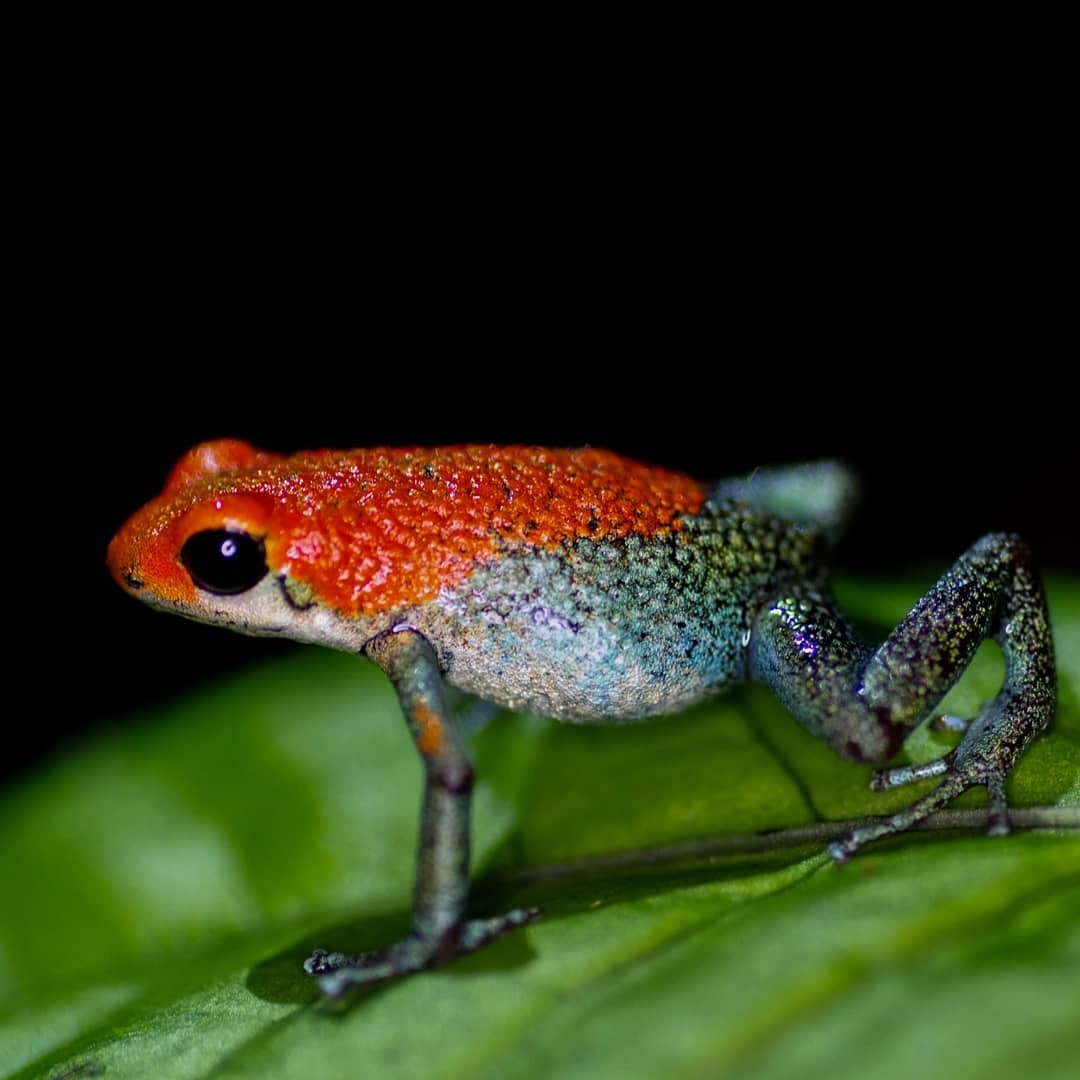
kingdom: Animalia
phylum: Chordata
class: Amphibia
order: Anura
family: Dendrobatidae
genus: Oophaga
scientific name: Oophaga granulifera
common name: Granular poison frog
